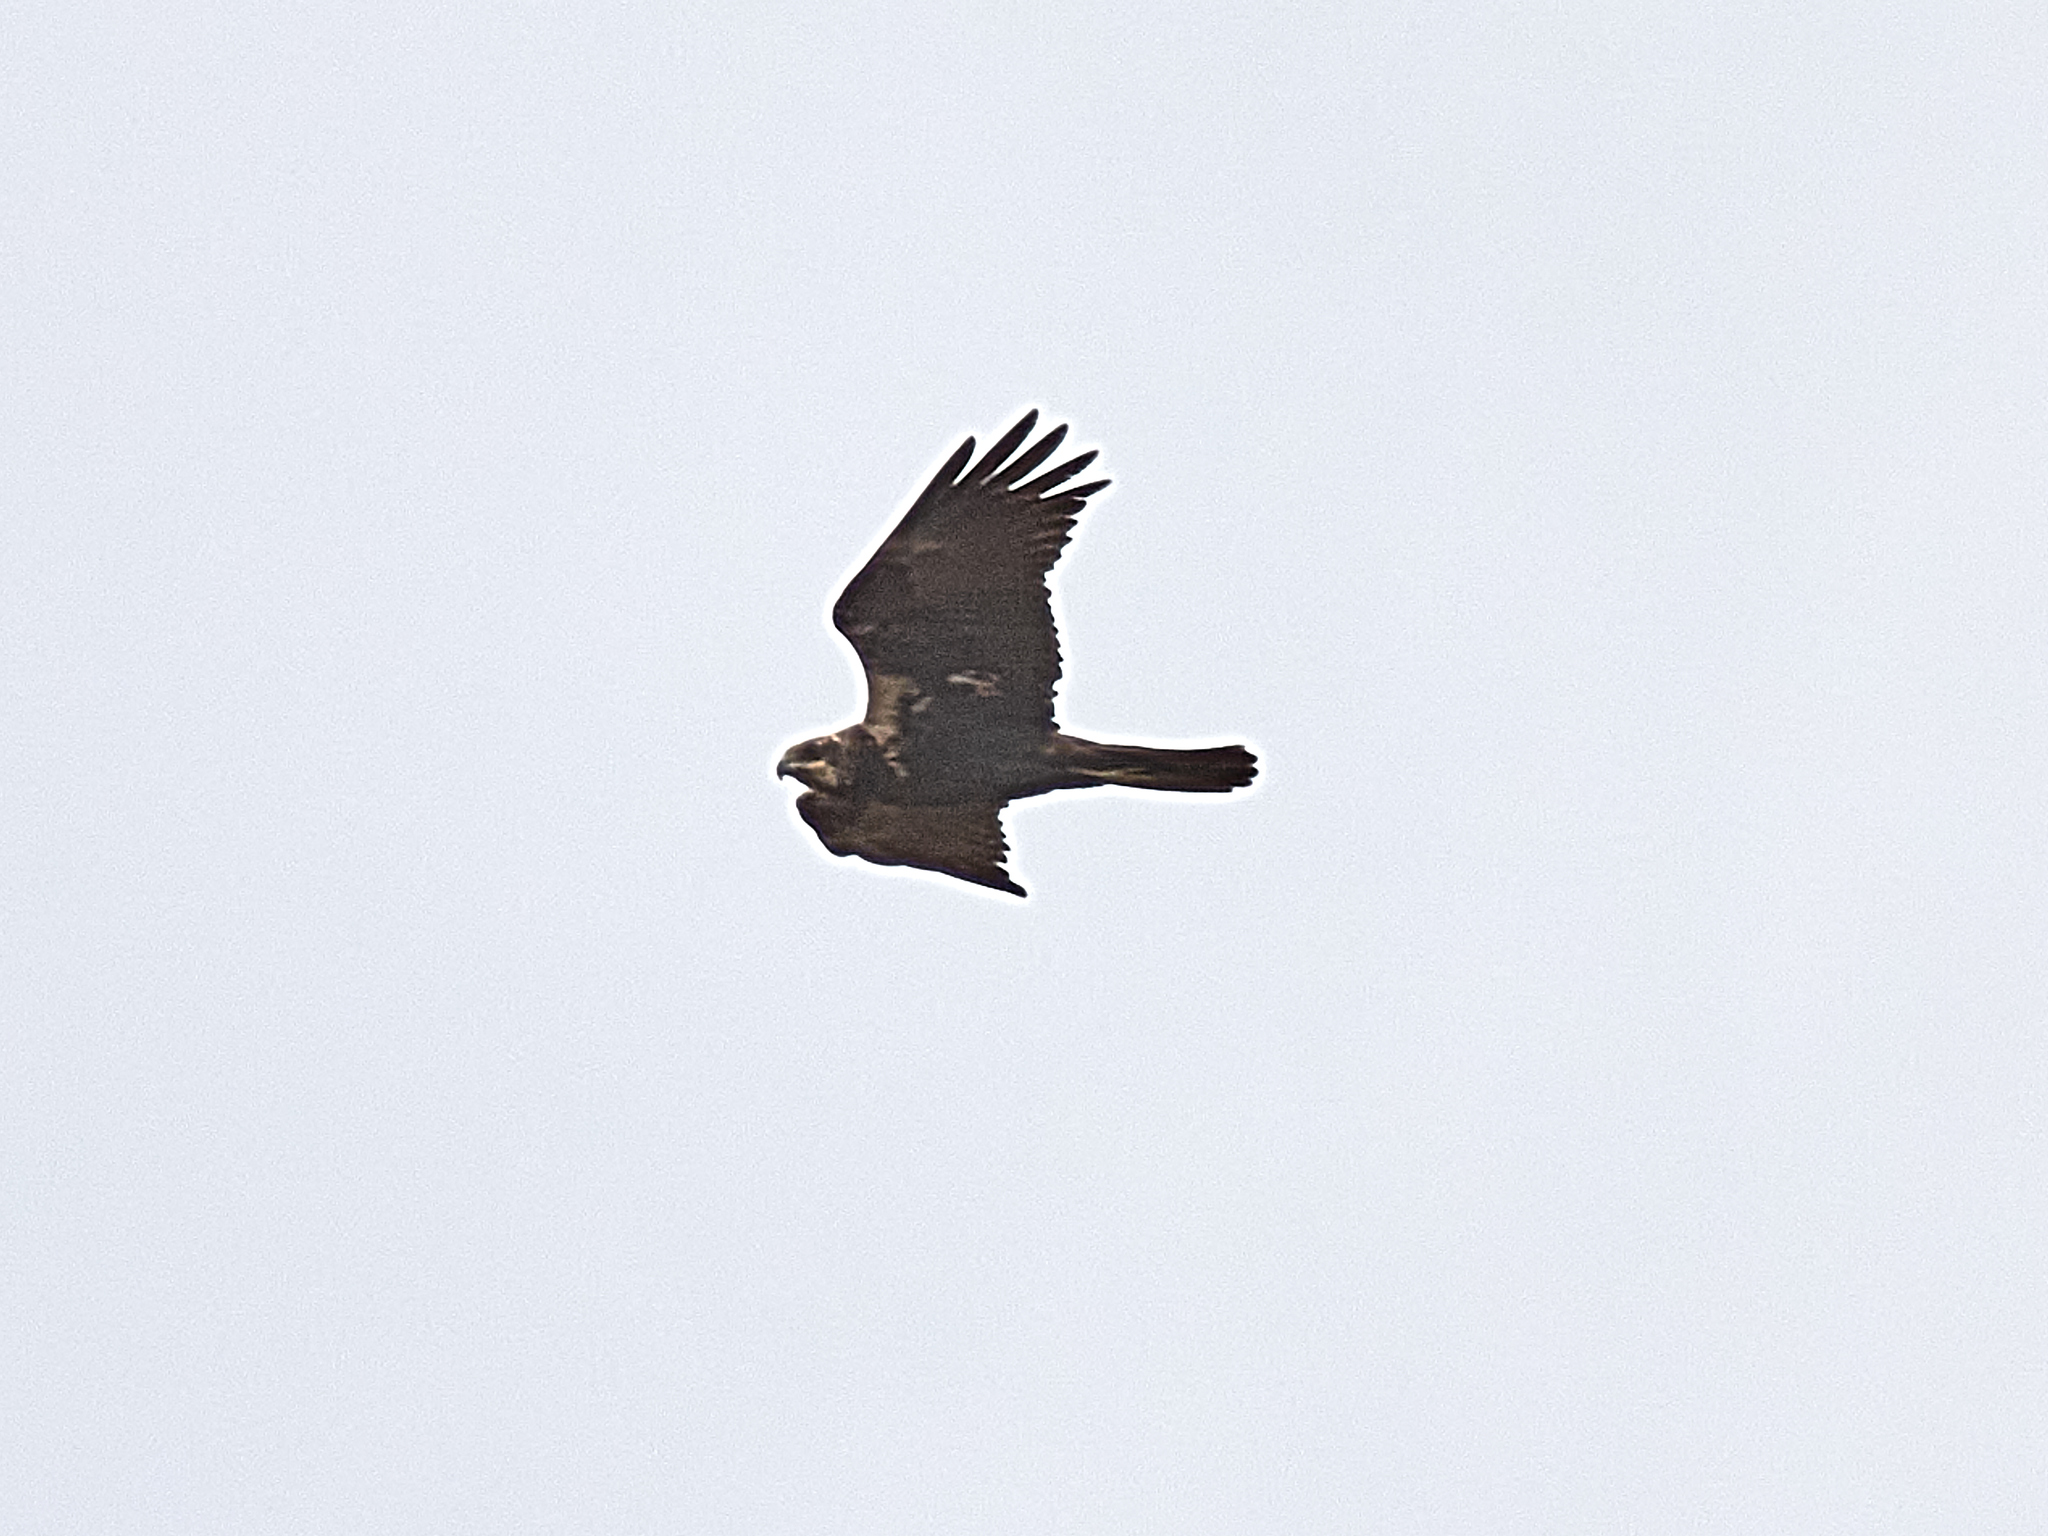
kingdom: Animalia
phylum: Chordata
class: Aves
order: Accipitriformes
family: Accipitridae
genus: Circus
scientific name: Circus aeruginosus
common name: Western marsh harrier
